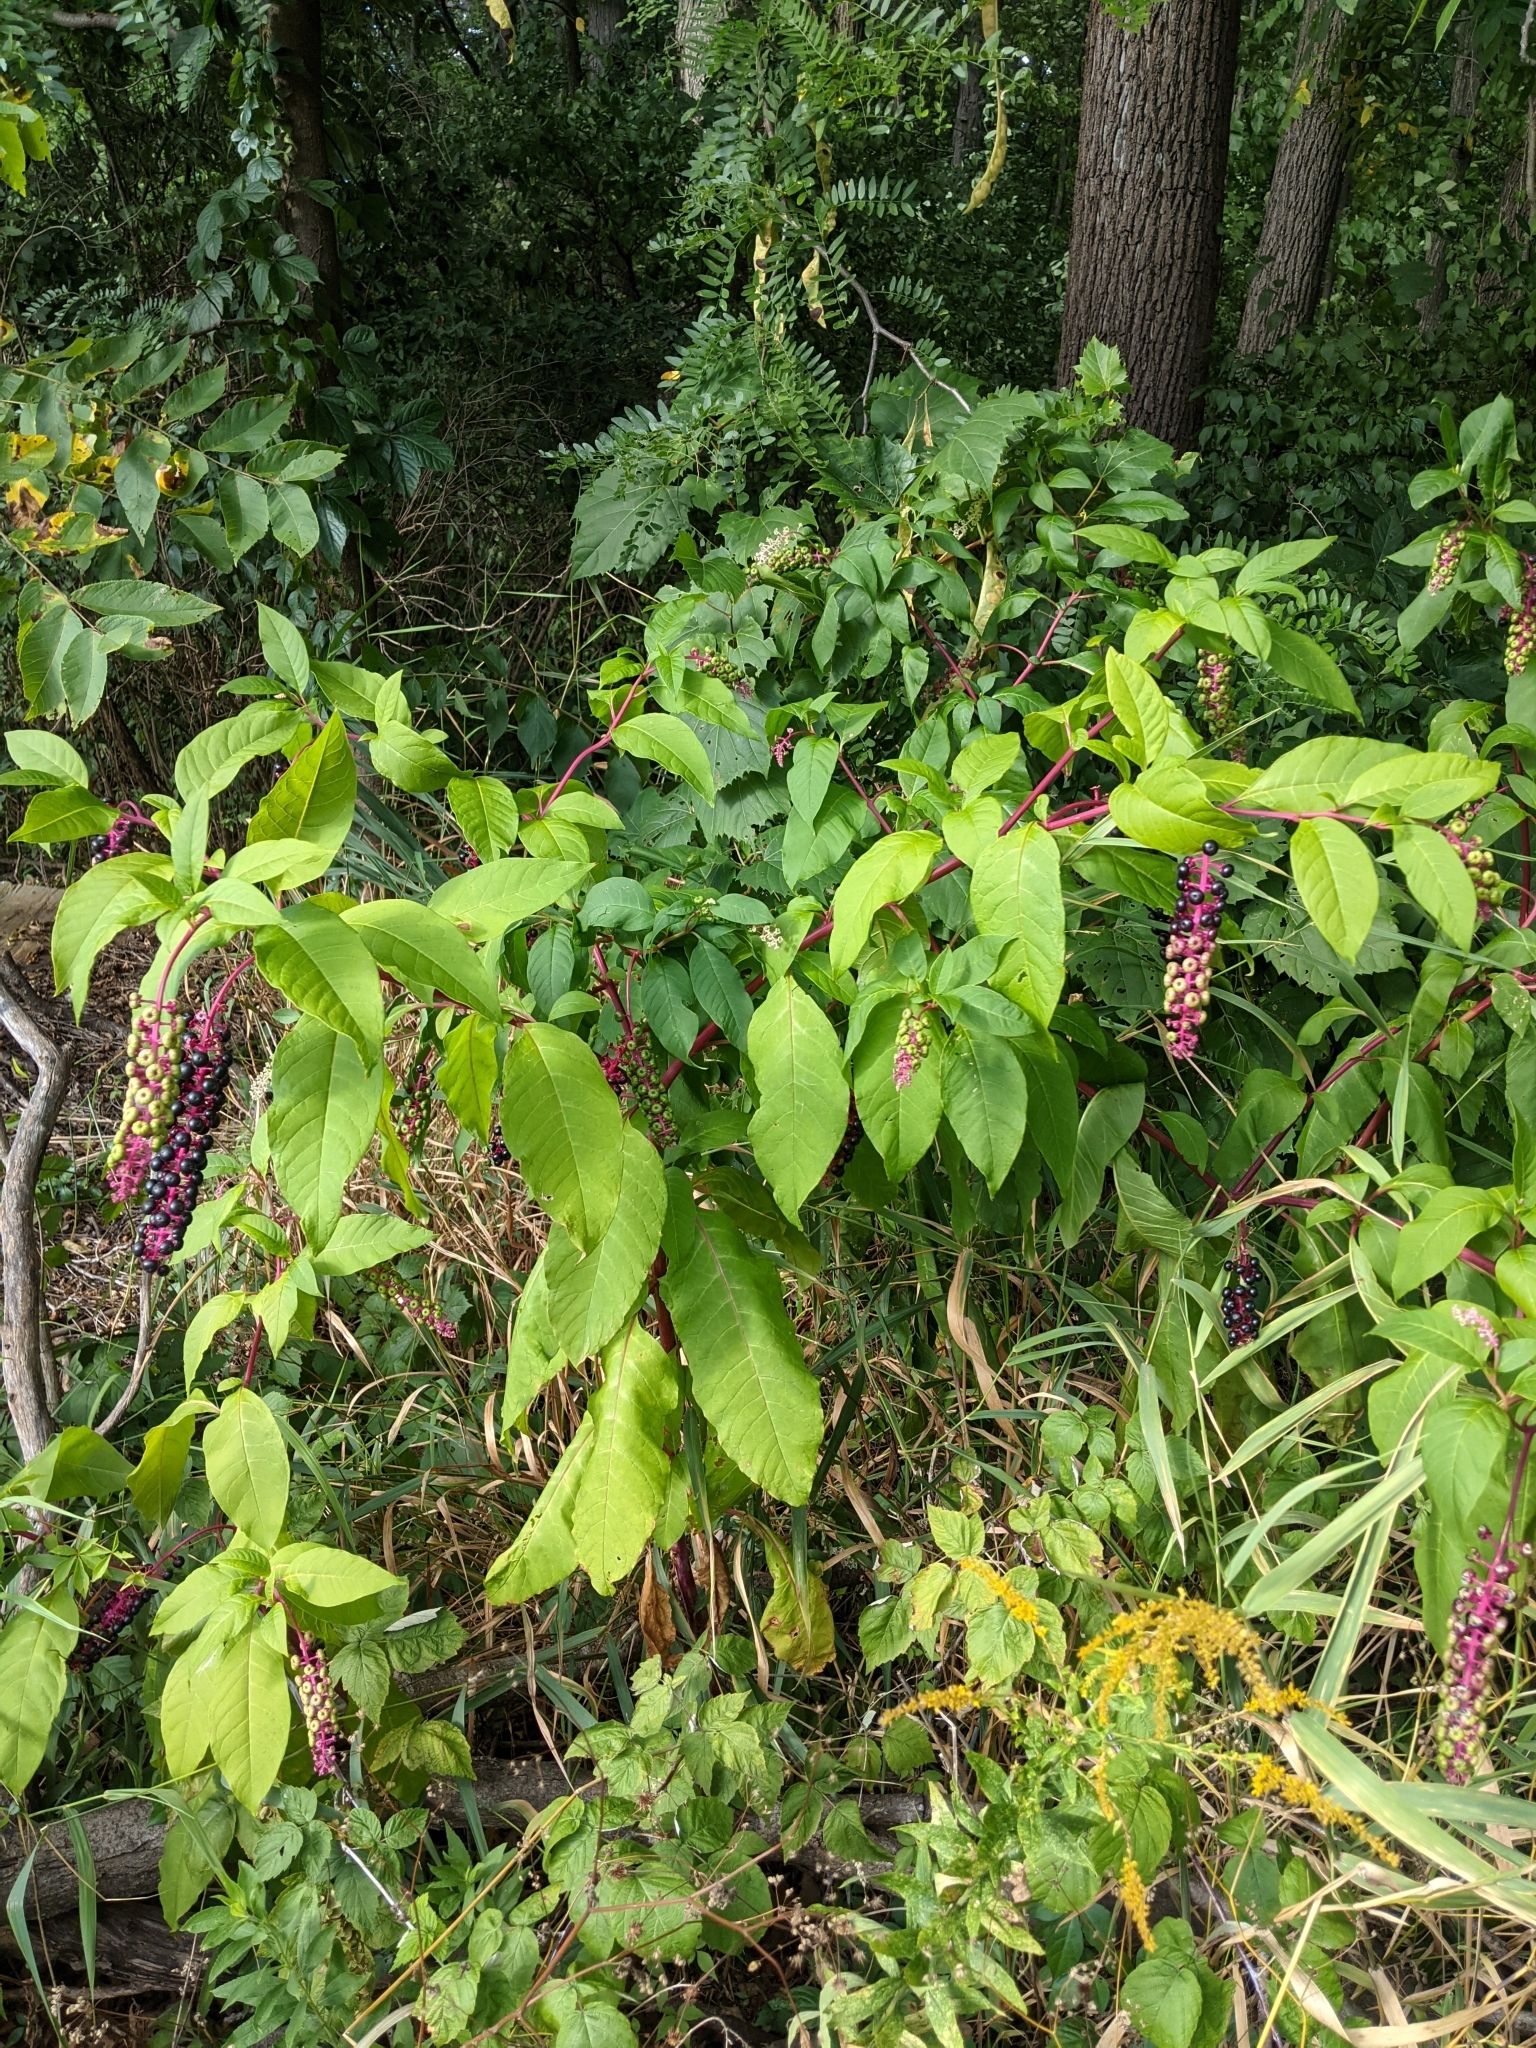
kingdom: Plantae
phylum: Tracheophyta
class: Magnoliopsida
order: Caryophyllales
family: Phytolaccaceae
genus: Phytolacca
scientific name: Phytolacca americana
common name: American pokeweed
